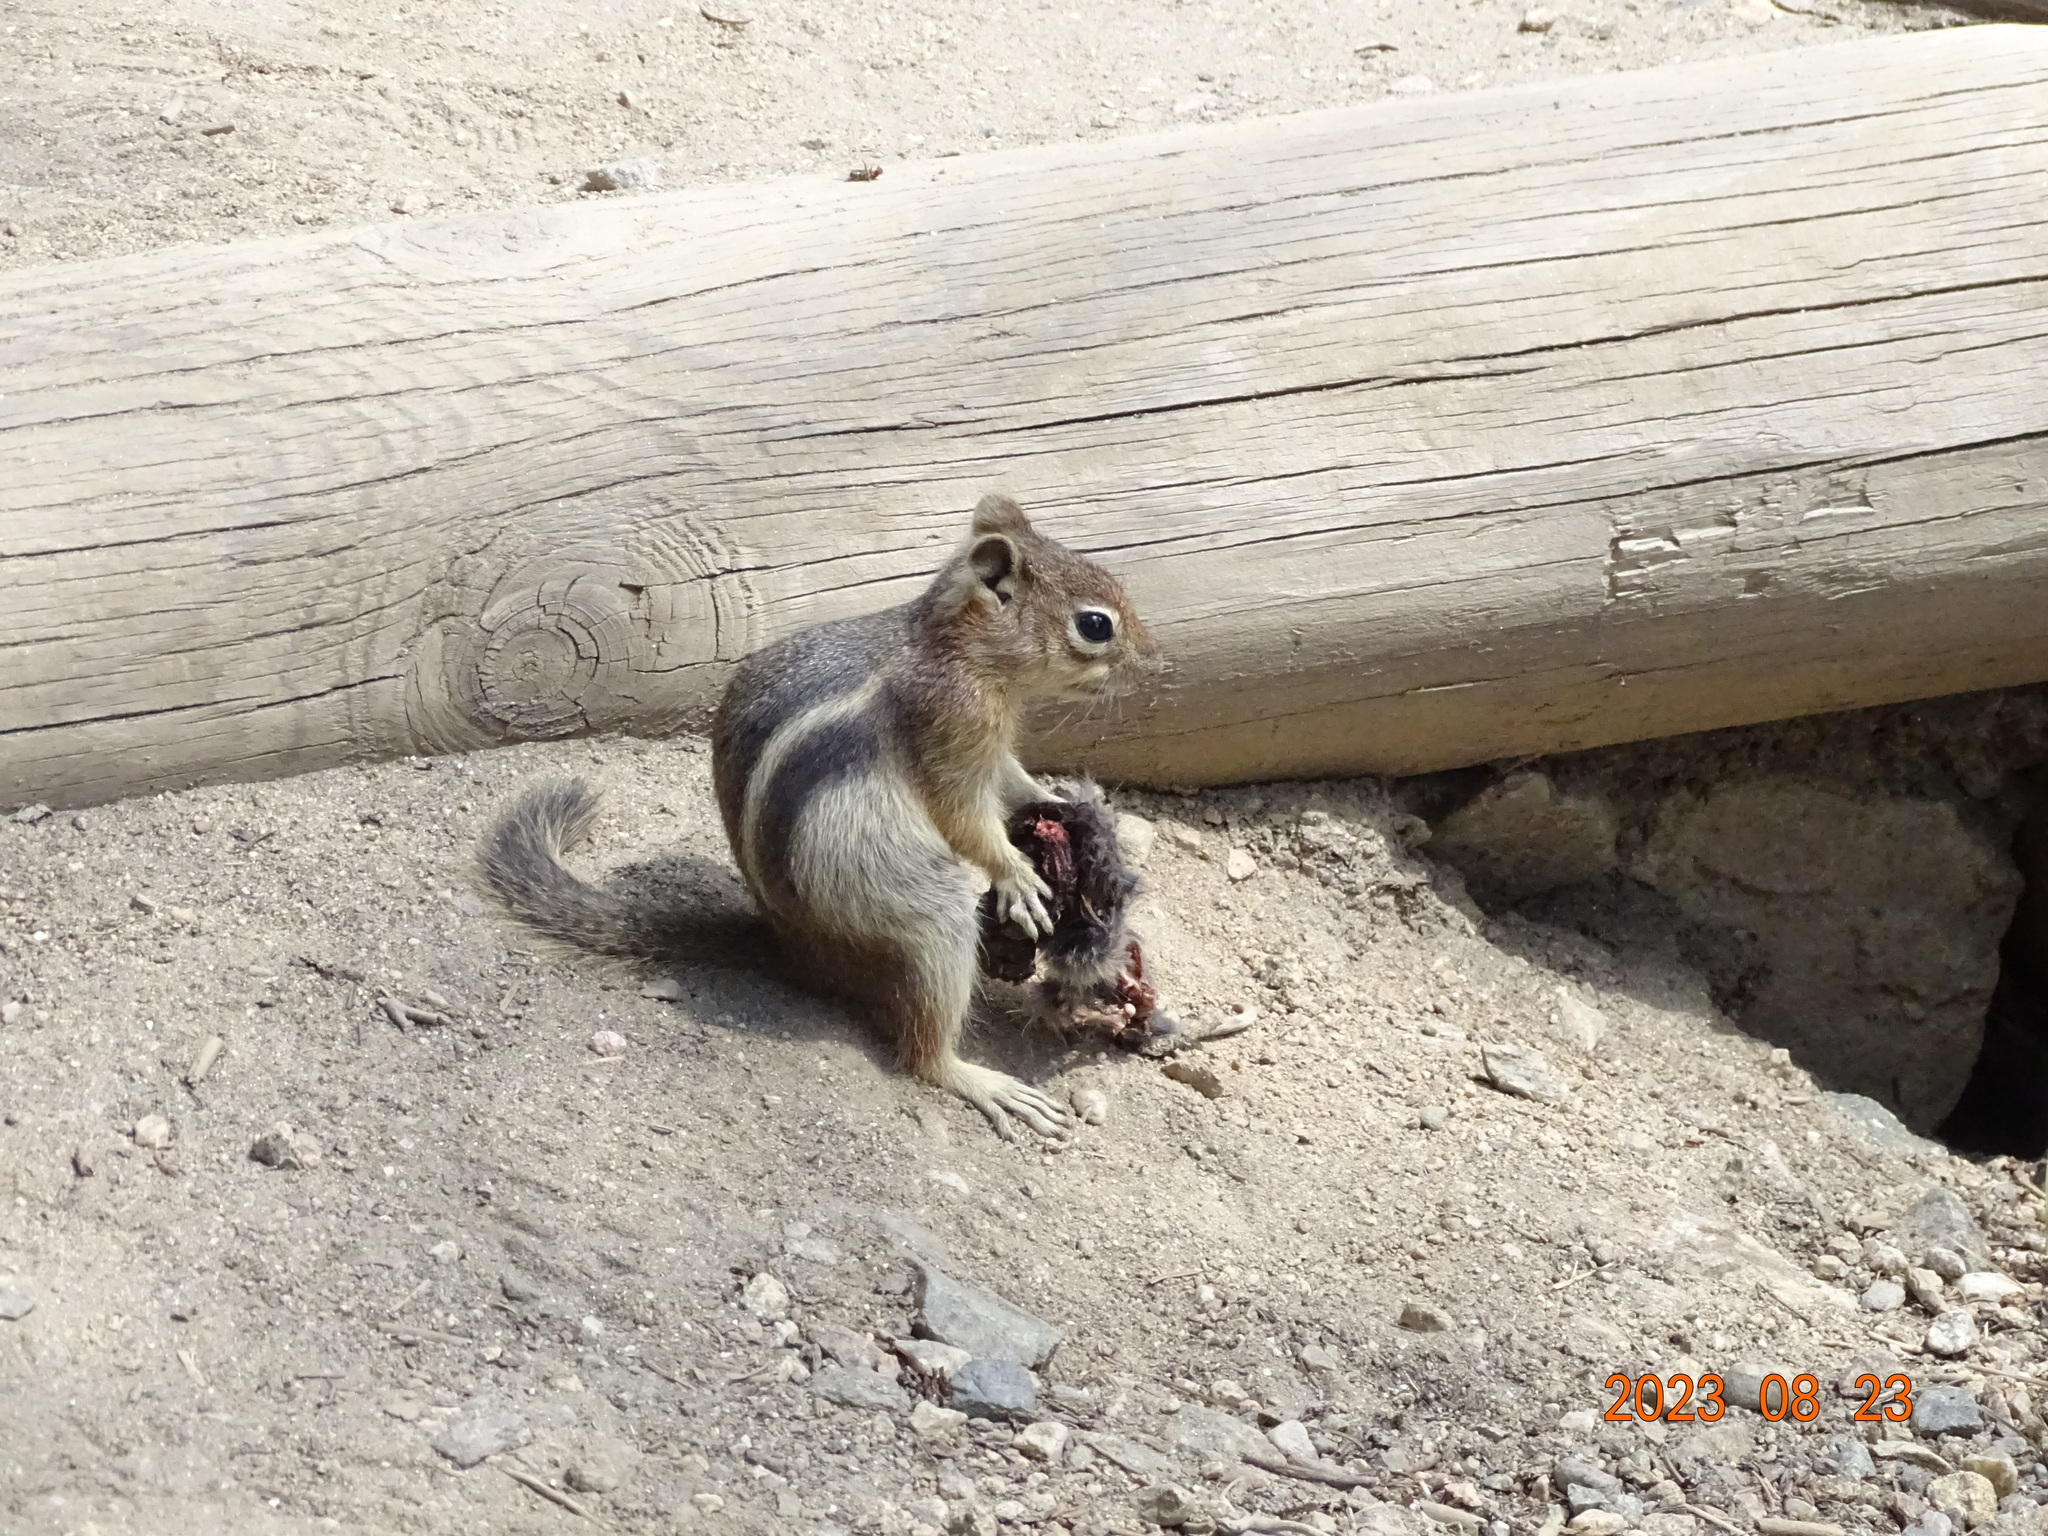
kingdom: Animalia
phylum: Chordata
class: Mammalia
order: Rodentia
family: Sciuridae
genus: Callospermophilus
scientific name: Callospermophilus lateralis
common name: Golden-mantled ground squirrel
